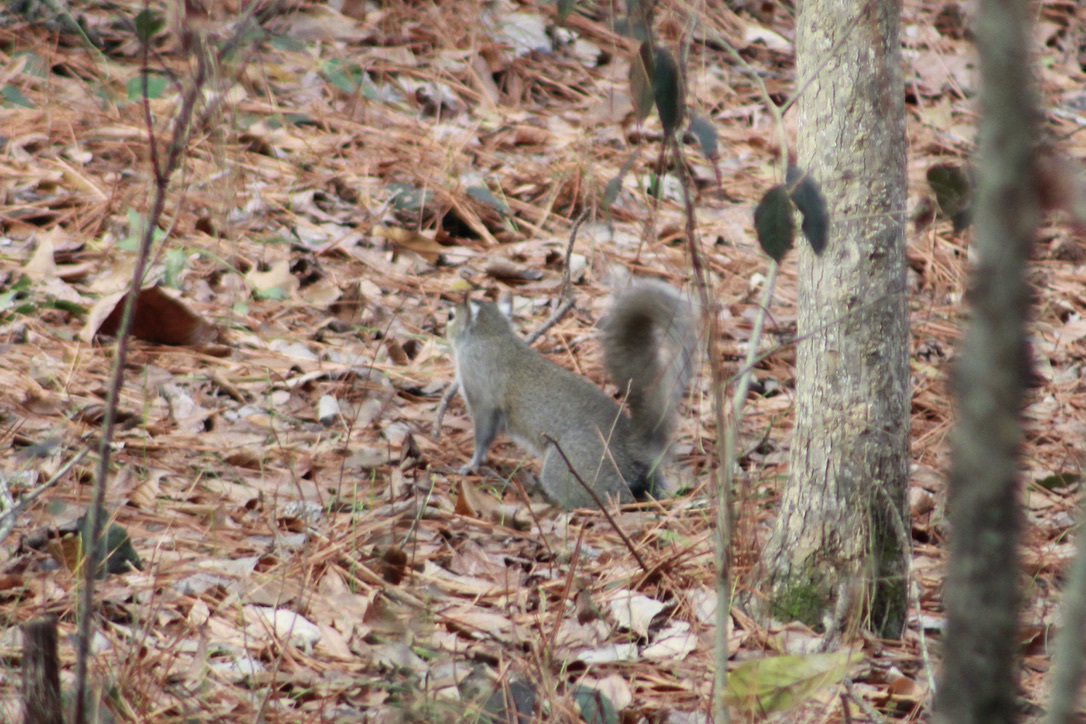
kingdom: Animalia
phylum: Chordata
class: Mammalia
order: Rodentia
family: Sciuridae
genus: Sciurus
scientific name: Sciurus carolinensis
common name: Eastern gray squirrel
